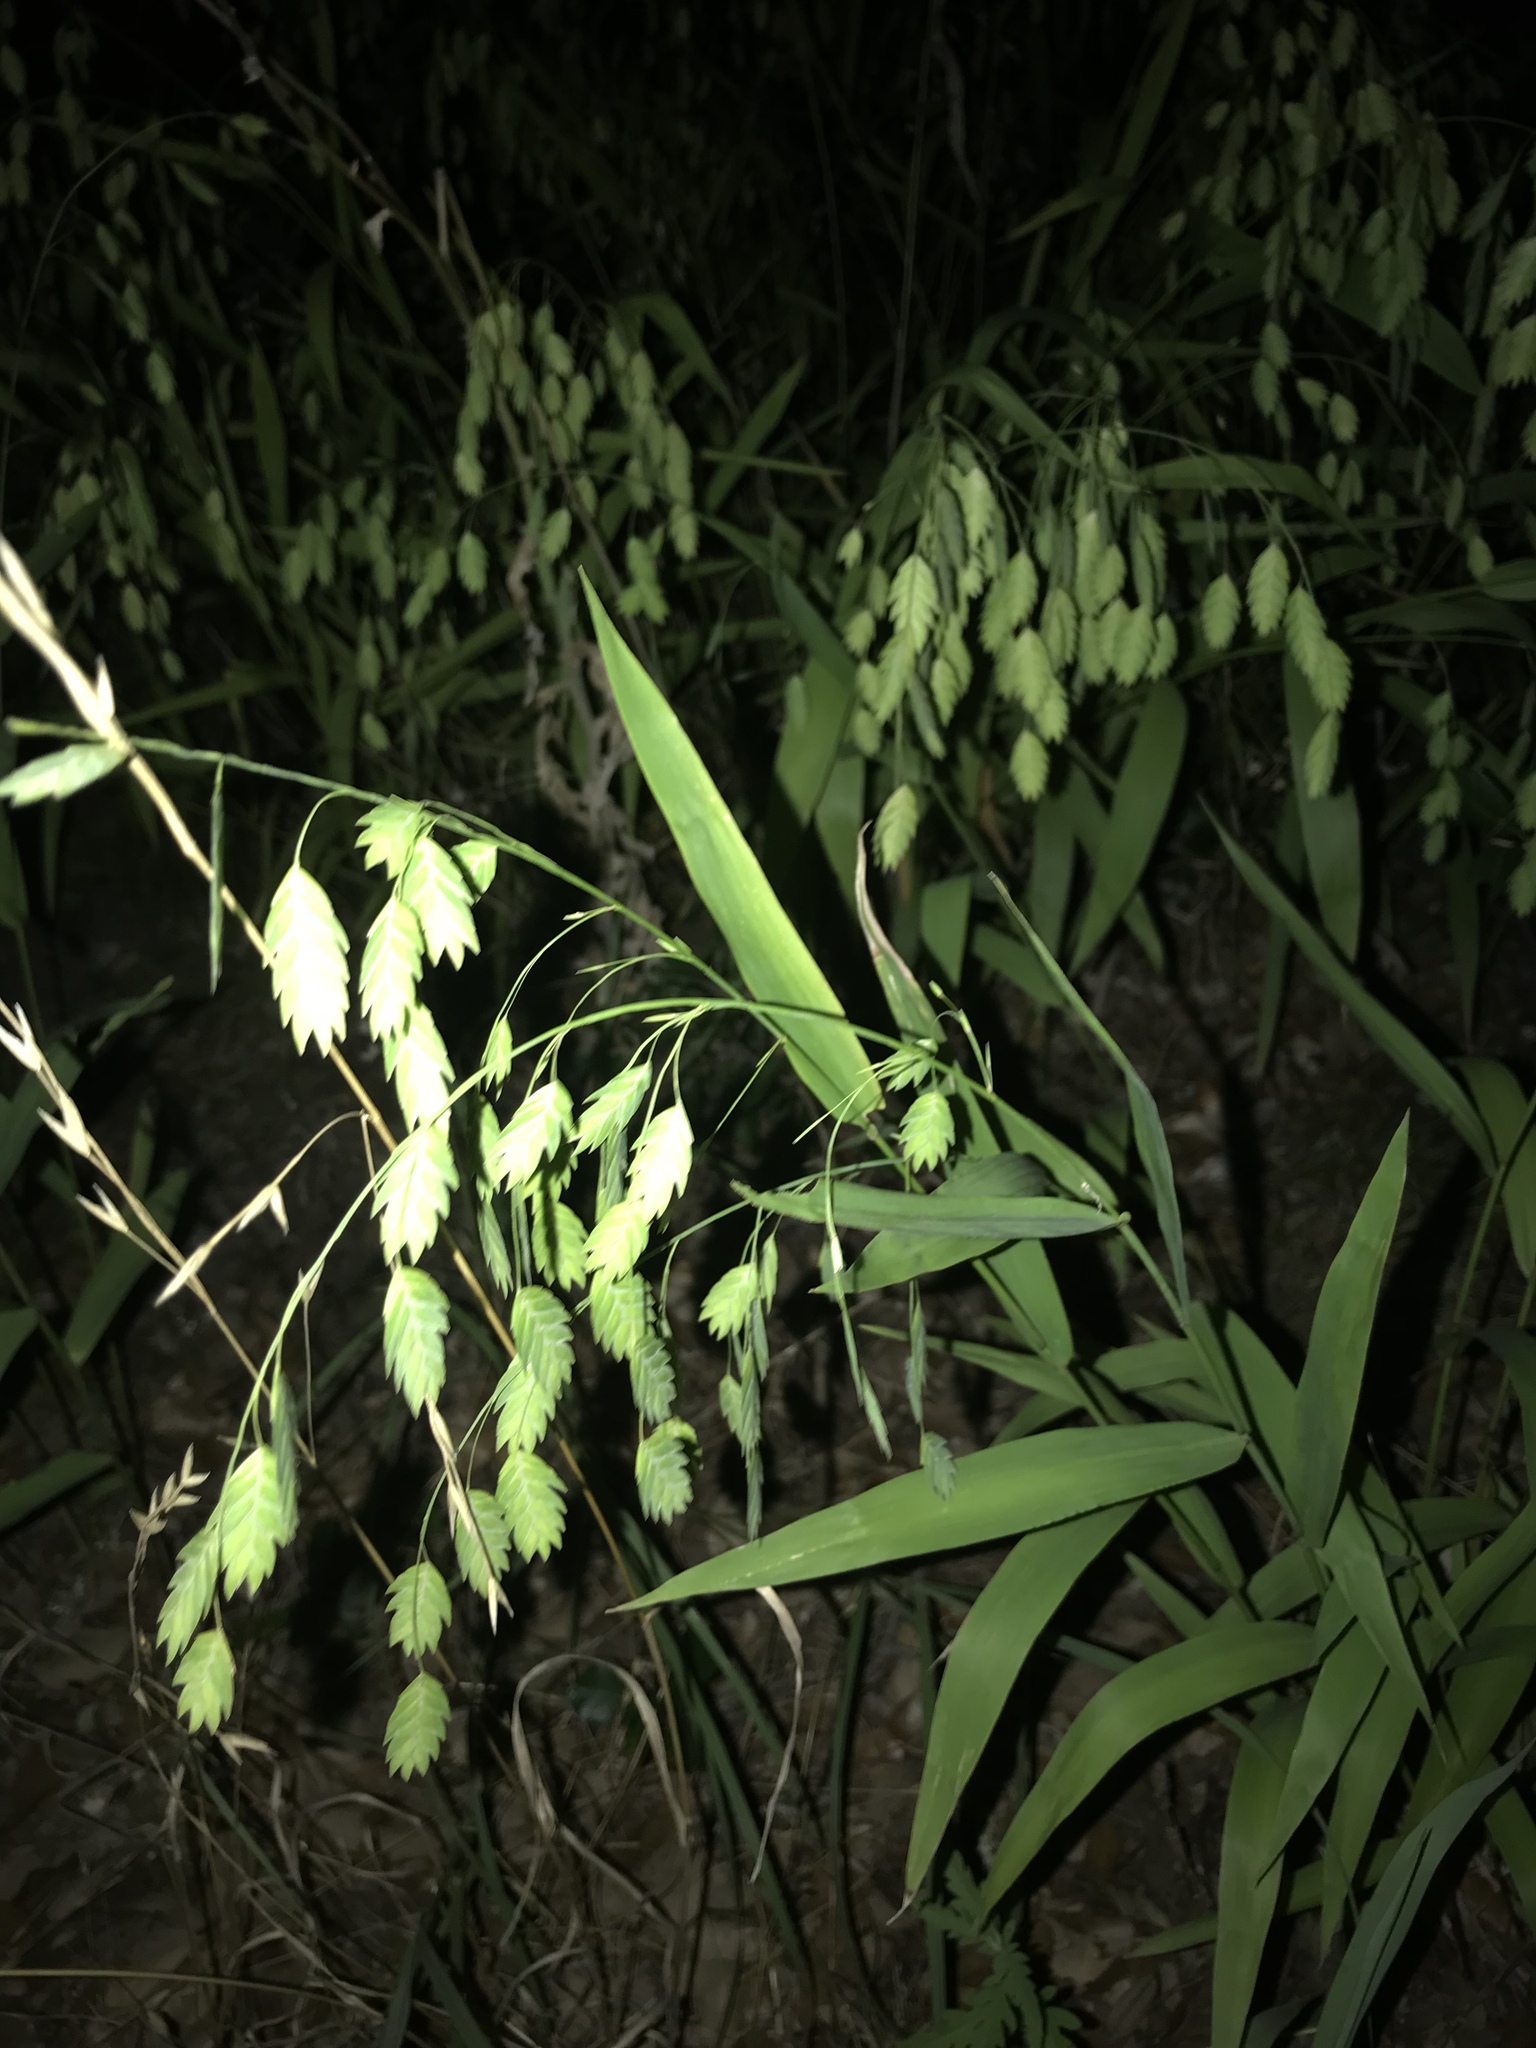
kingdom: Plantae
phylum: Tracheophyta
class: Liliopsida
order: Poales
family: Poaceae
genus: Chasmanthium
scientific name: Chasmanthium latifolium
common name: Broad-leaved chasmanthium
